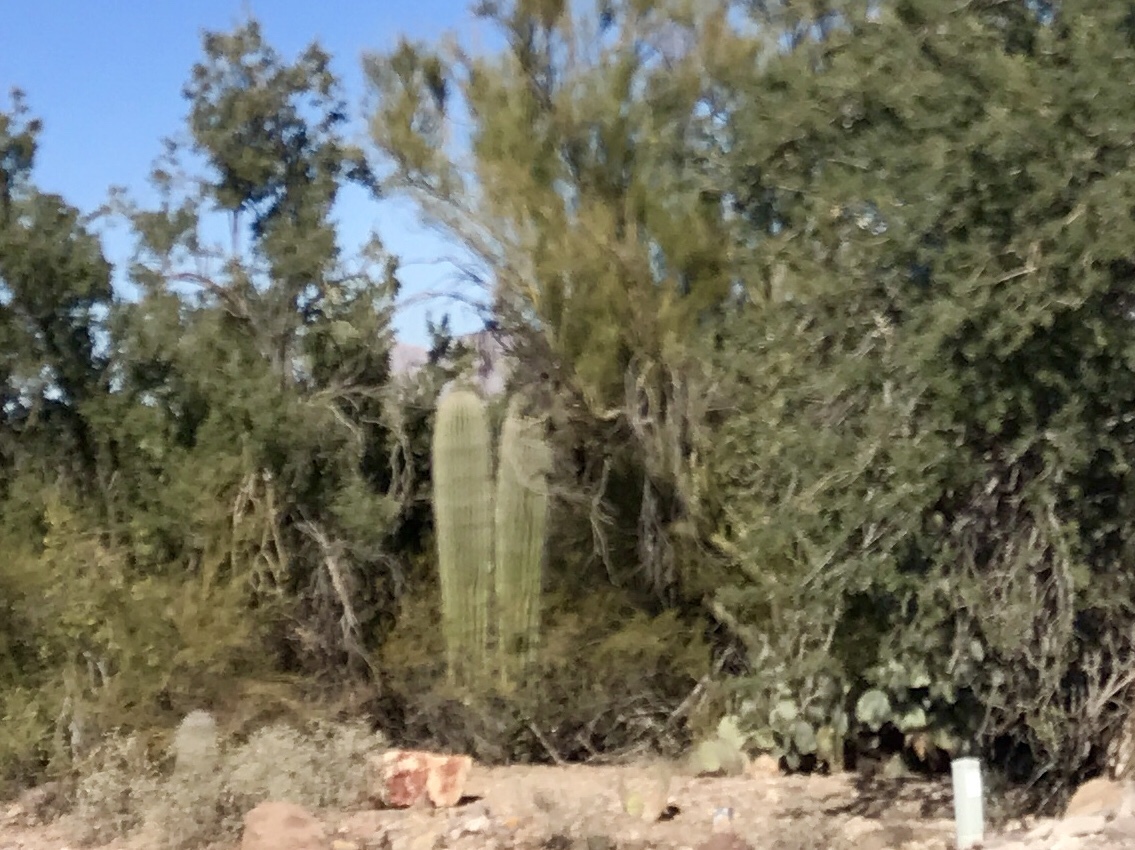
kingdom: Plantae
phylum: Tracheophyta
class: Magnoliopsida
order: Caryophyllales
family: Cactaceae
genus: Carnegiea
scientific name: Carnegiea gigantea
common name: Saguaro
